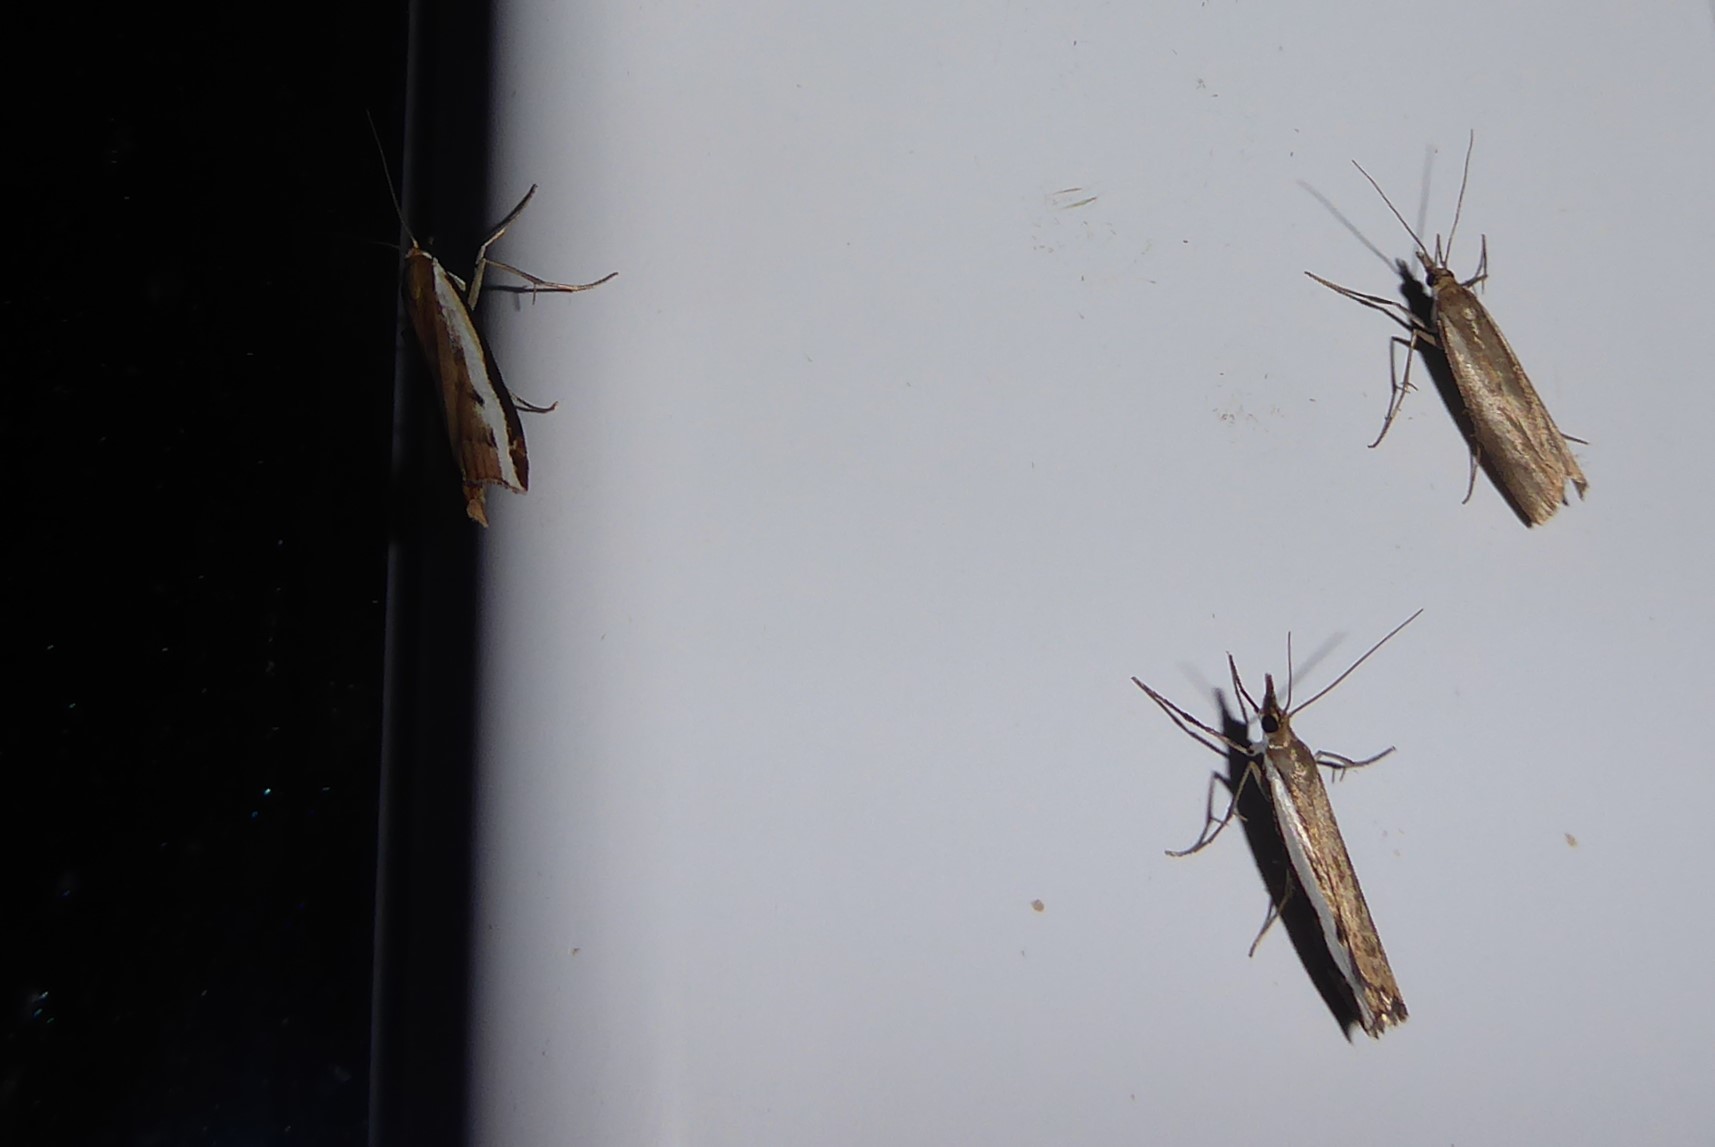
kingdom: Animalia
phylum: Arthropoda
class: Insecta
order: Lepidoptera
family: Crambidae
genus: Orocrambus
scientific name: Orocrambus flexuosellus
